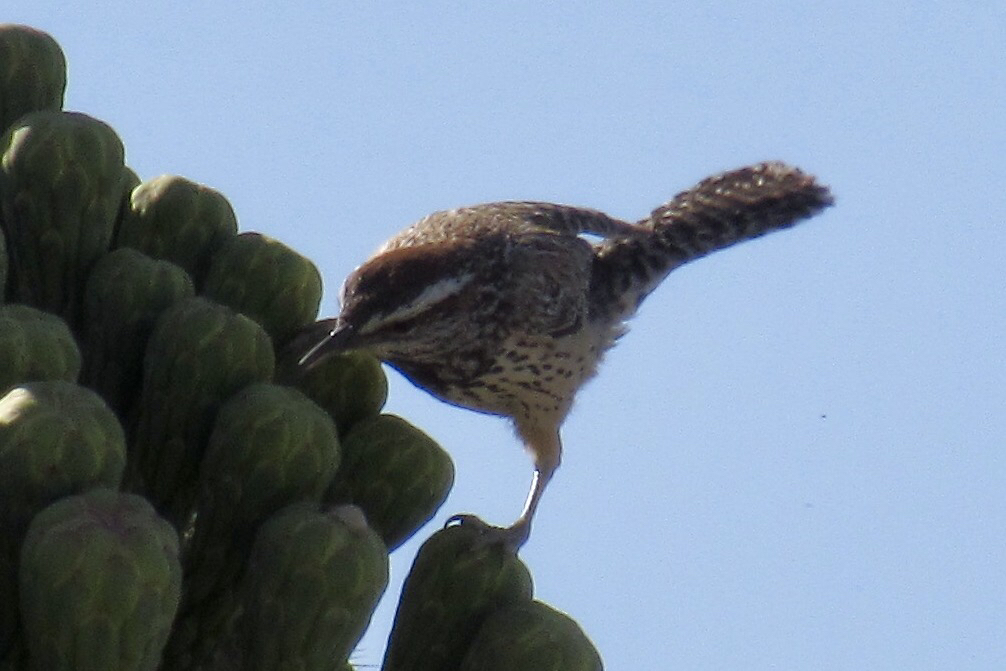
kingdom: Animalia
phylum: Chordata
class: Aves
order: Passeriformes
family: Troglodytidae
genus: Campylorhynchus
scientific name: Campylorhynchus brunneicapillus
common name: Cactus wren
